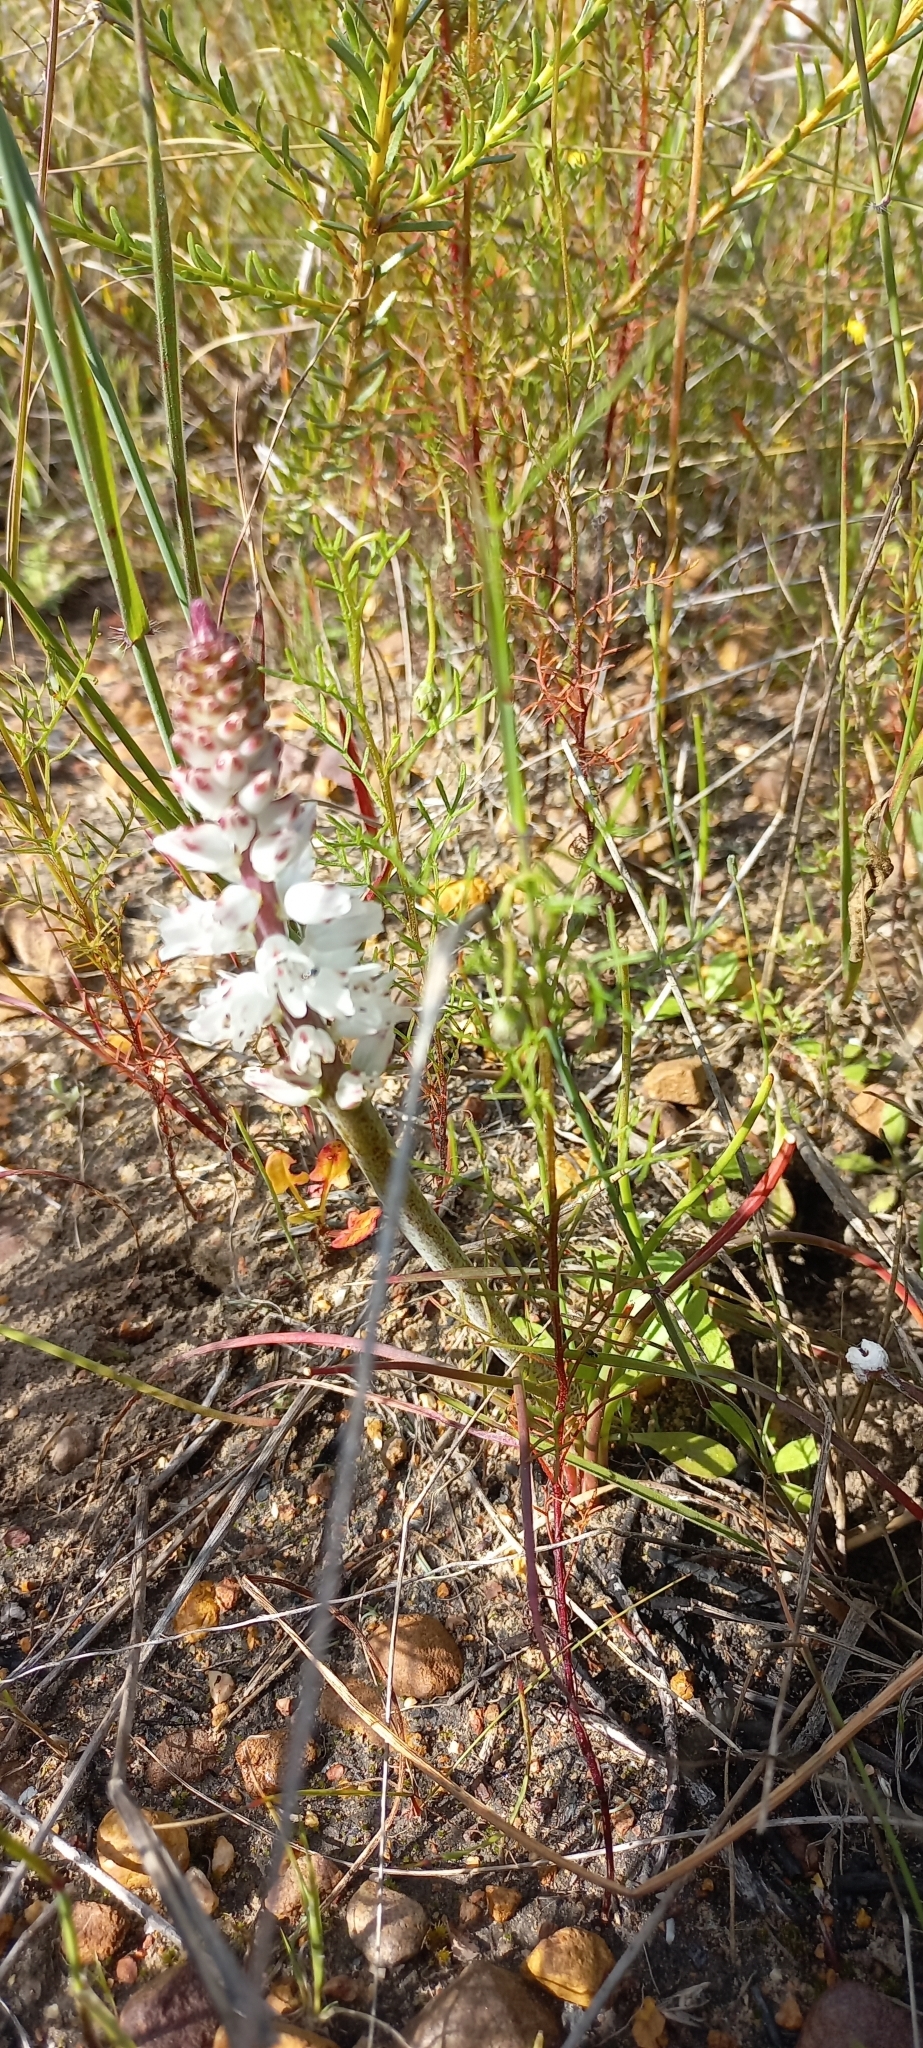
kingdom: Plantae
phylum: Tracheophyta
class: Liliopsida
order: Asparagales
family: Asparagaceae
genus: Lachenalia
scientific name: Lachenalia contaminata
